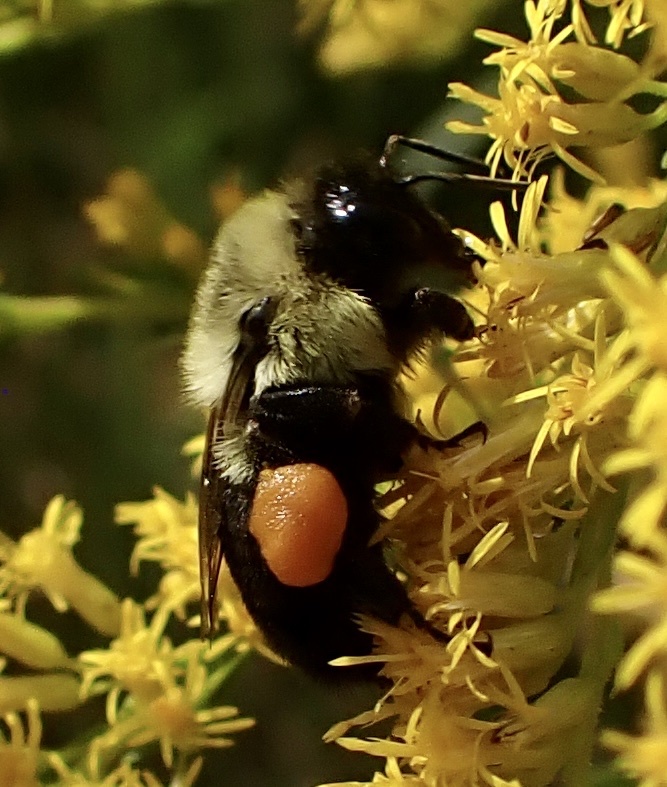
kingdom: Animalia
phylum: Arthropoda
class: Insecta
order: Hymenoptera
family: Apidae
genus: Bombus
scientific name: Bombus impatiens
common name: Common eastern bumble bee
